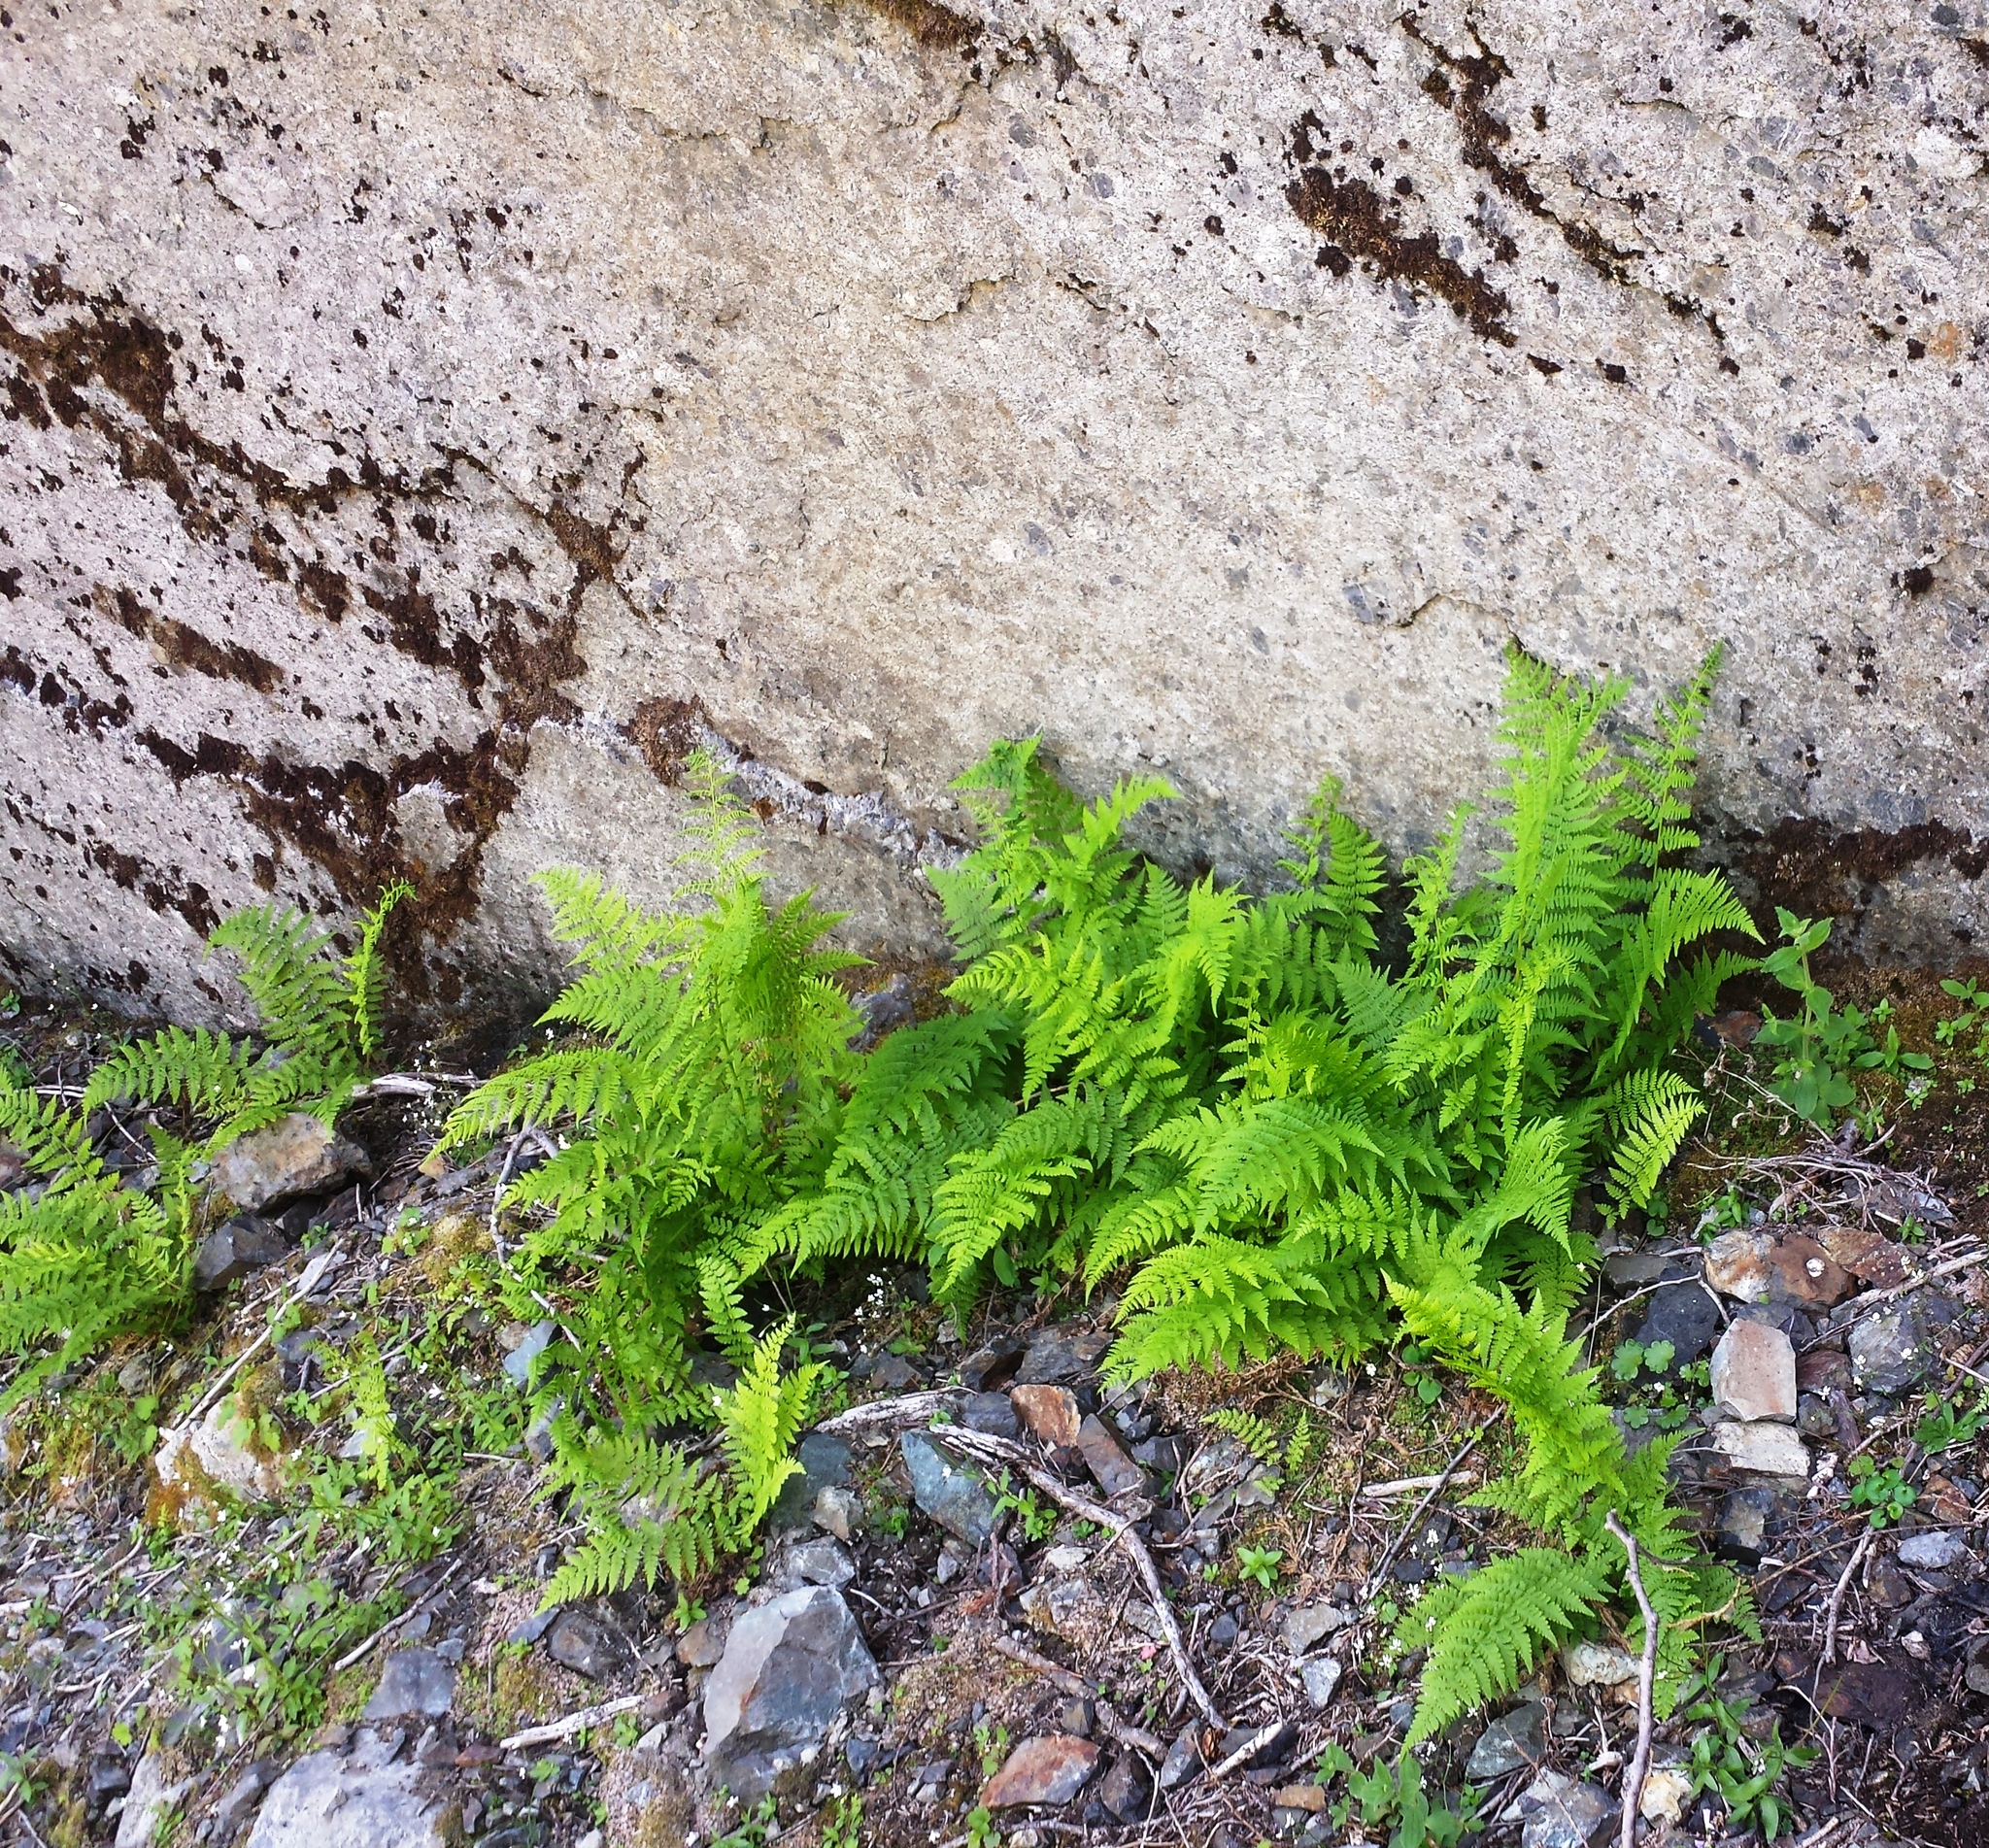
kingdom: Plantae
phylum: Tracheophyta
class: Polypodiopsida
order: Polypodiales
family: Athyriaceae
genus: Athyrium
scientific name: Athyrium americanum
